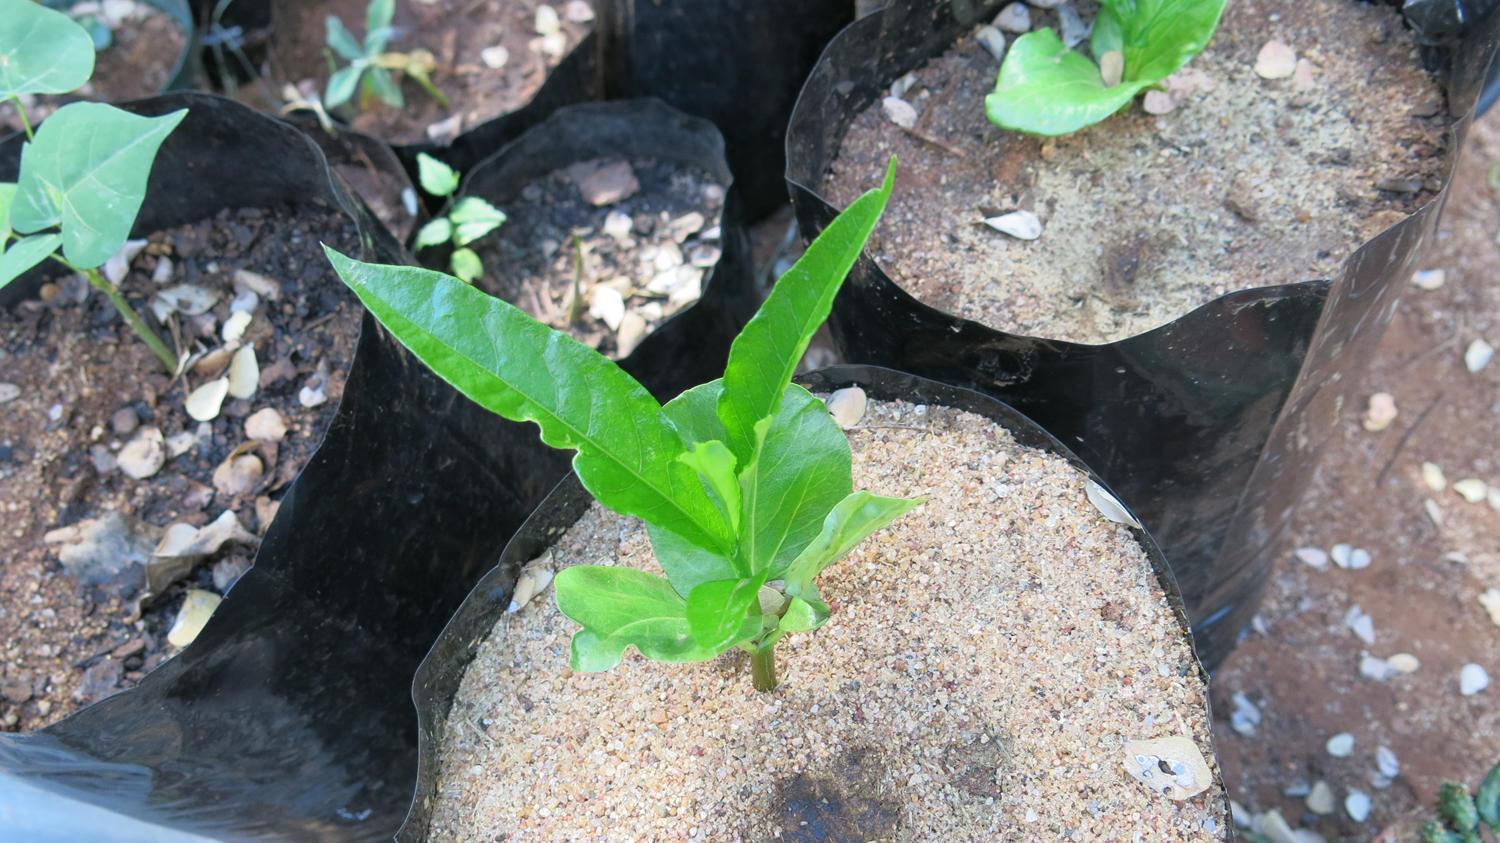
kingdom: Plantae
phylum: Tracheophyta
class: Magnoliopsida
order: Malvales
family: Malvaceae
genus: Adansonia
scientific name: Adansonia digitata
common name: Dead-rat-tree
